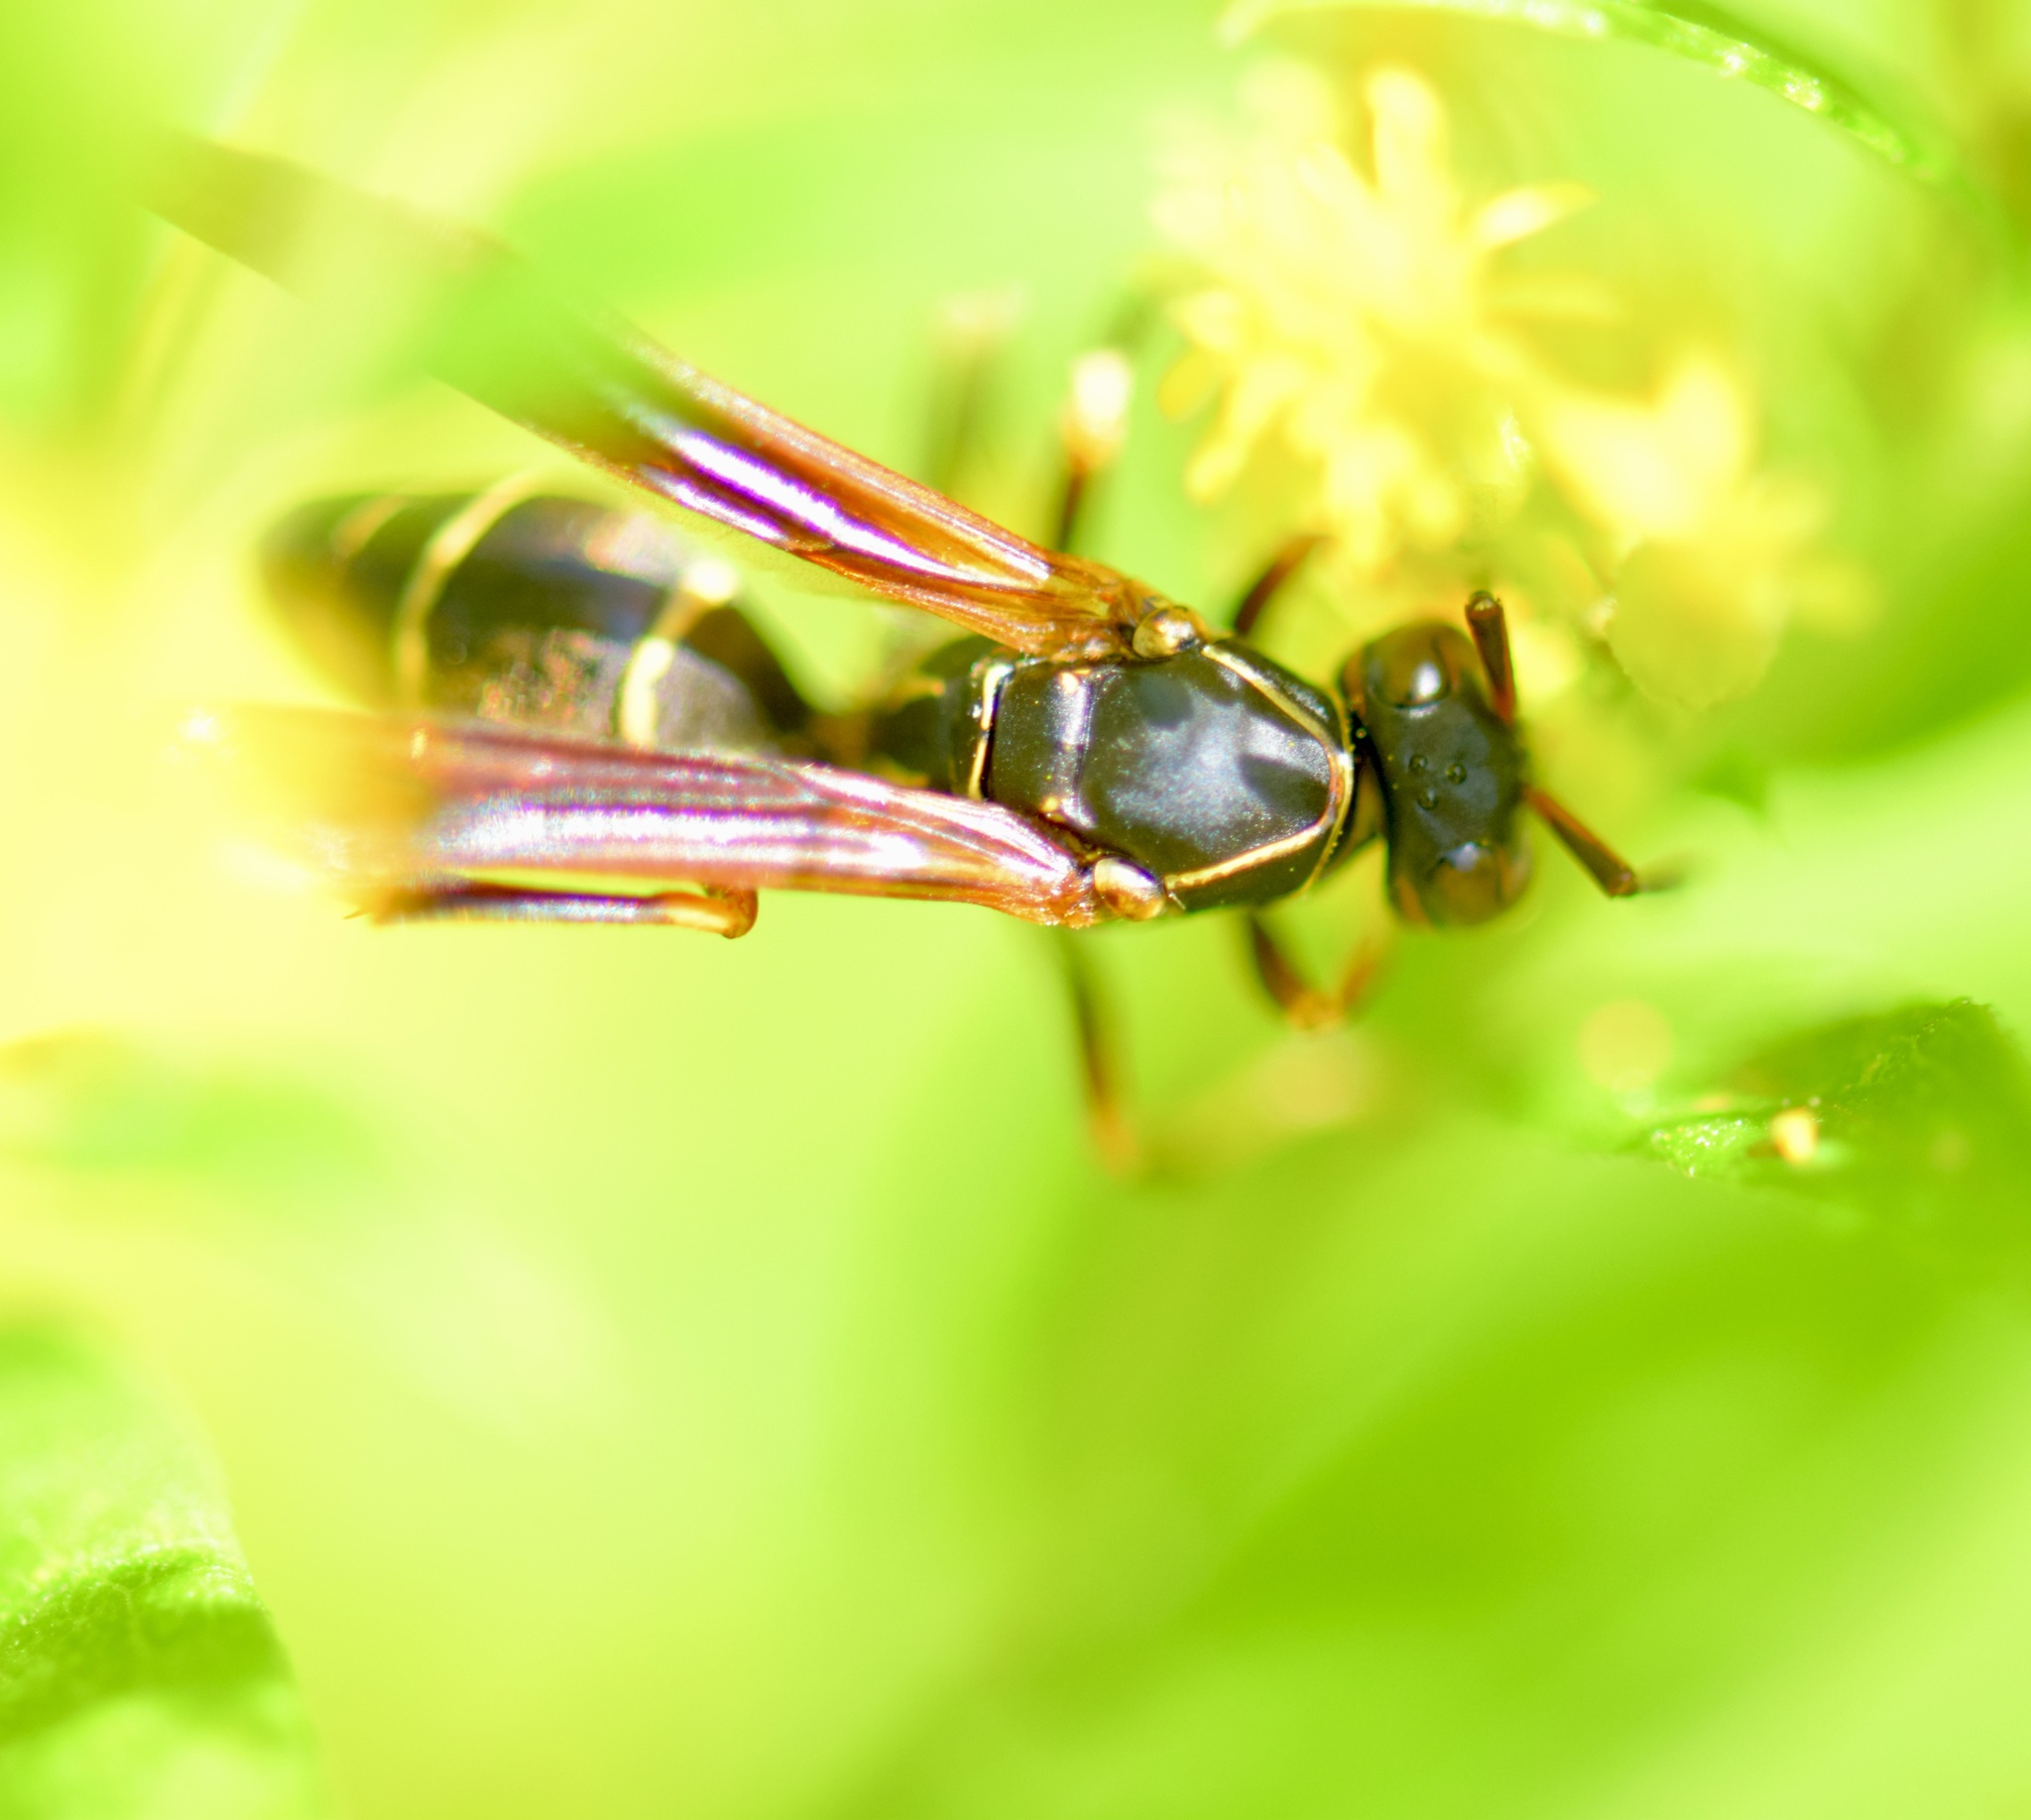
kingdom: Animalia
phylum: Arthropoda
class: Insecta
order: Hymenoptera
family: Eumenidae
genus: Polistes
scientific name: Polistes fuscatus
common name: Dark paper wasp
